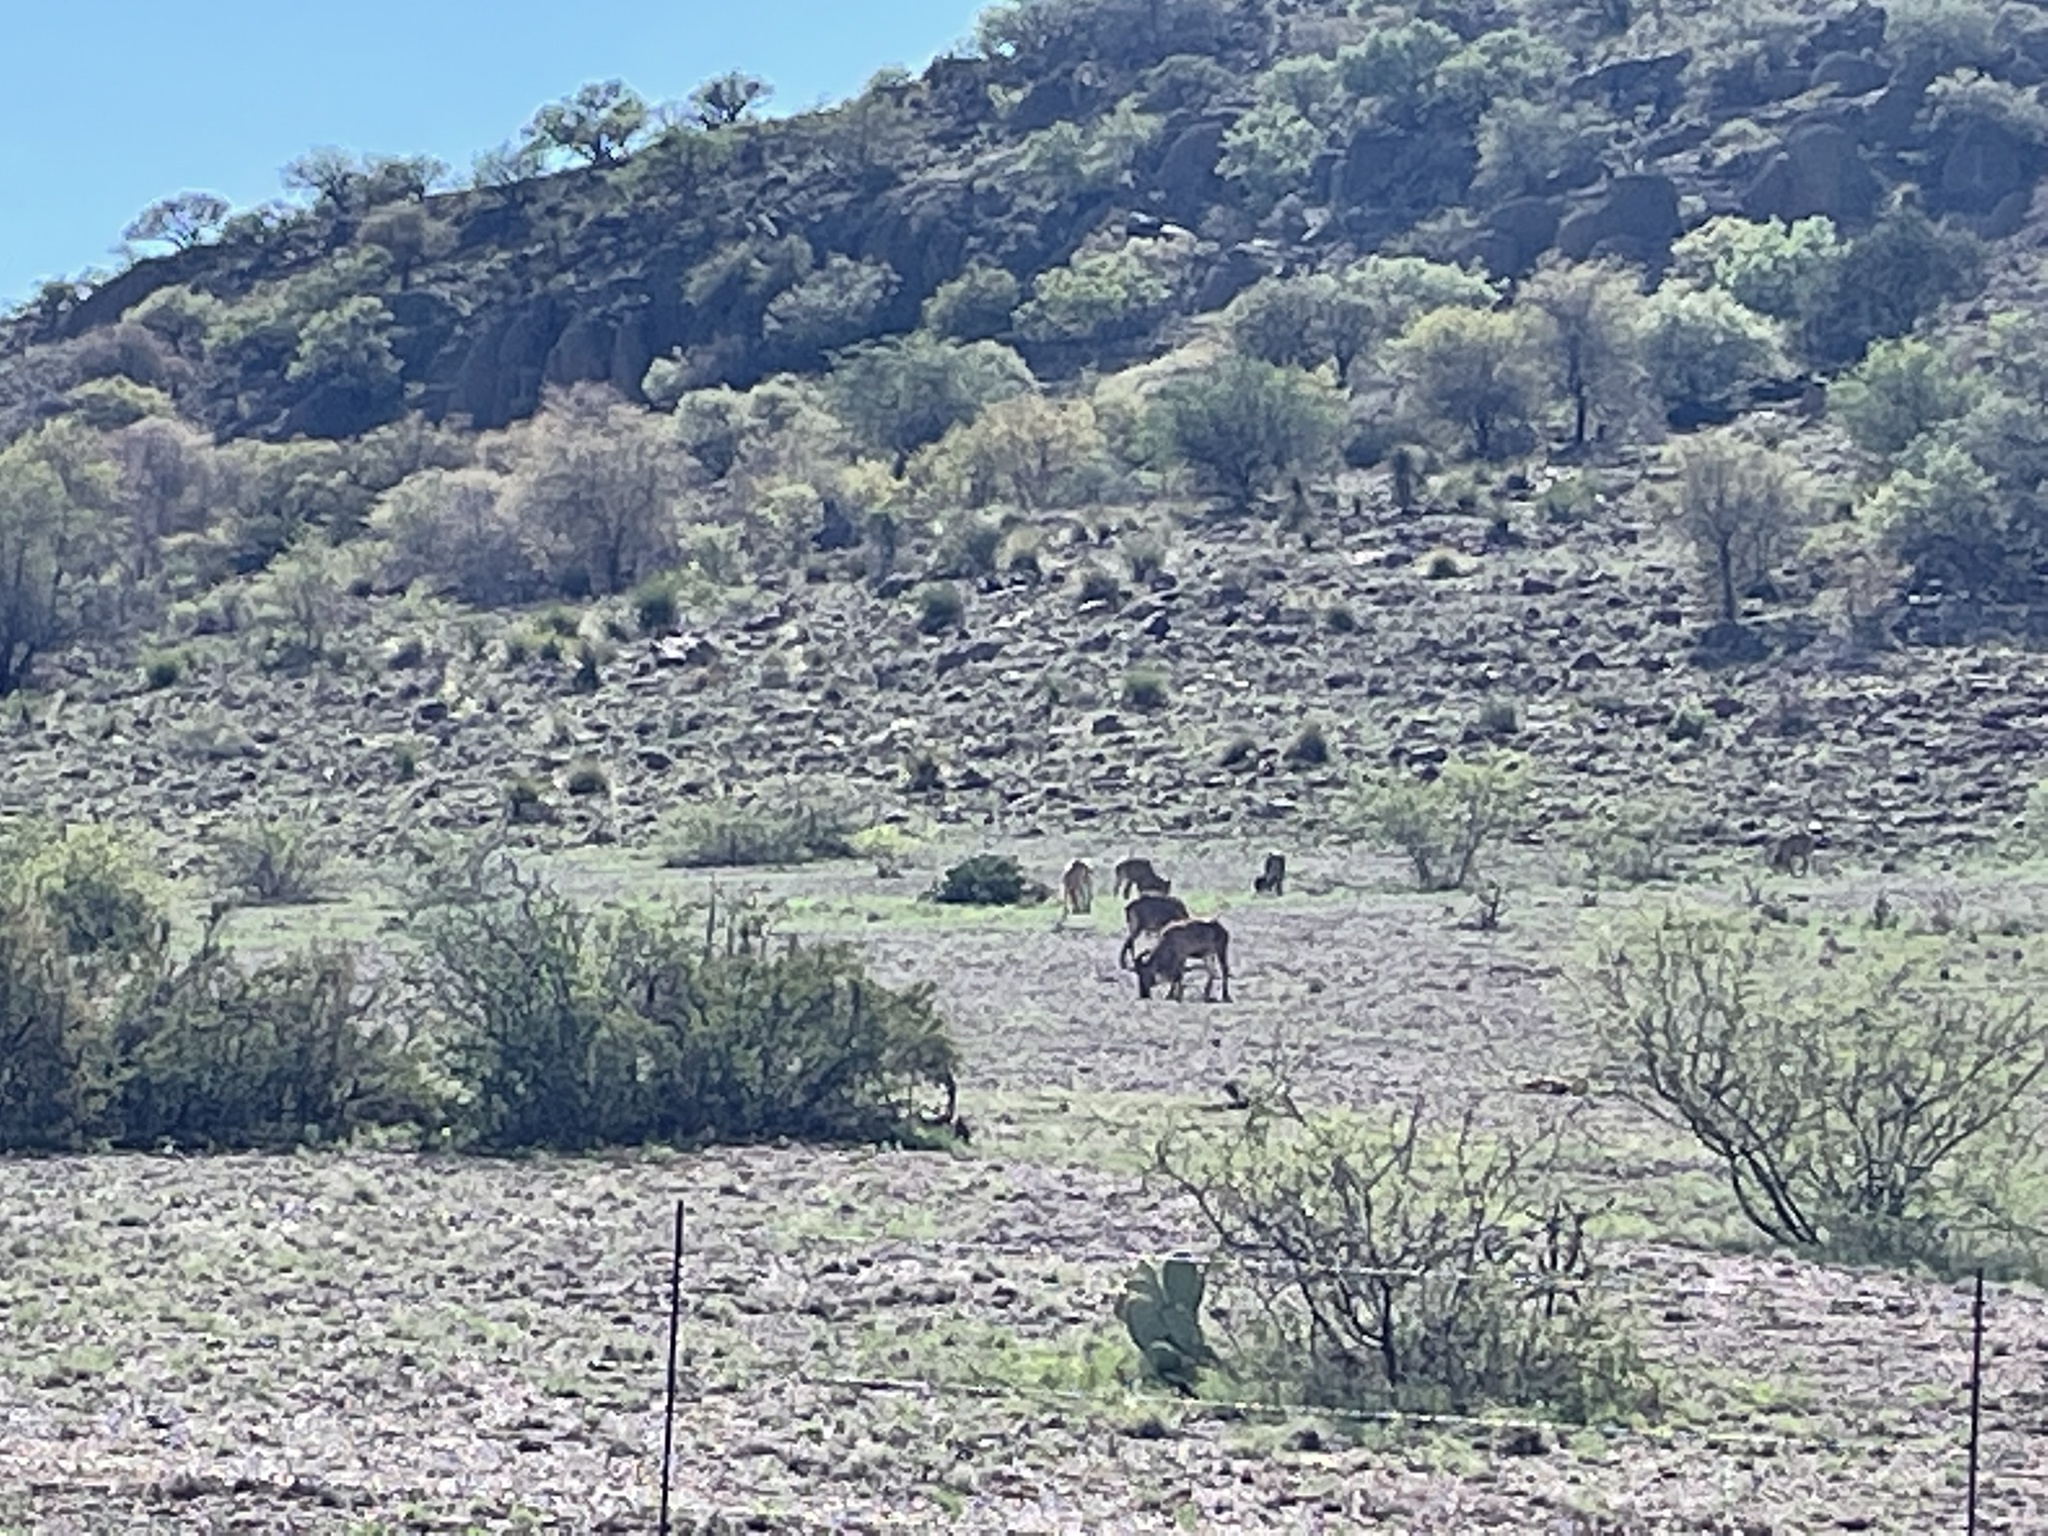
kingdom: Animalia
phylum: Chordata
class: Mammalia
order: Artiodactyla
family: Bovidae
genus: Ammotragus
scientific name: Ammotragus lervia
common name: Barbary sheep
